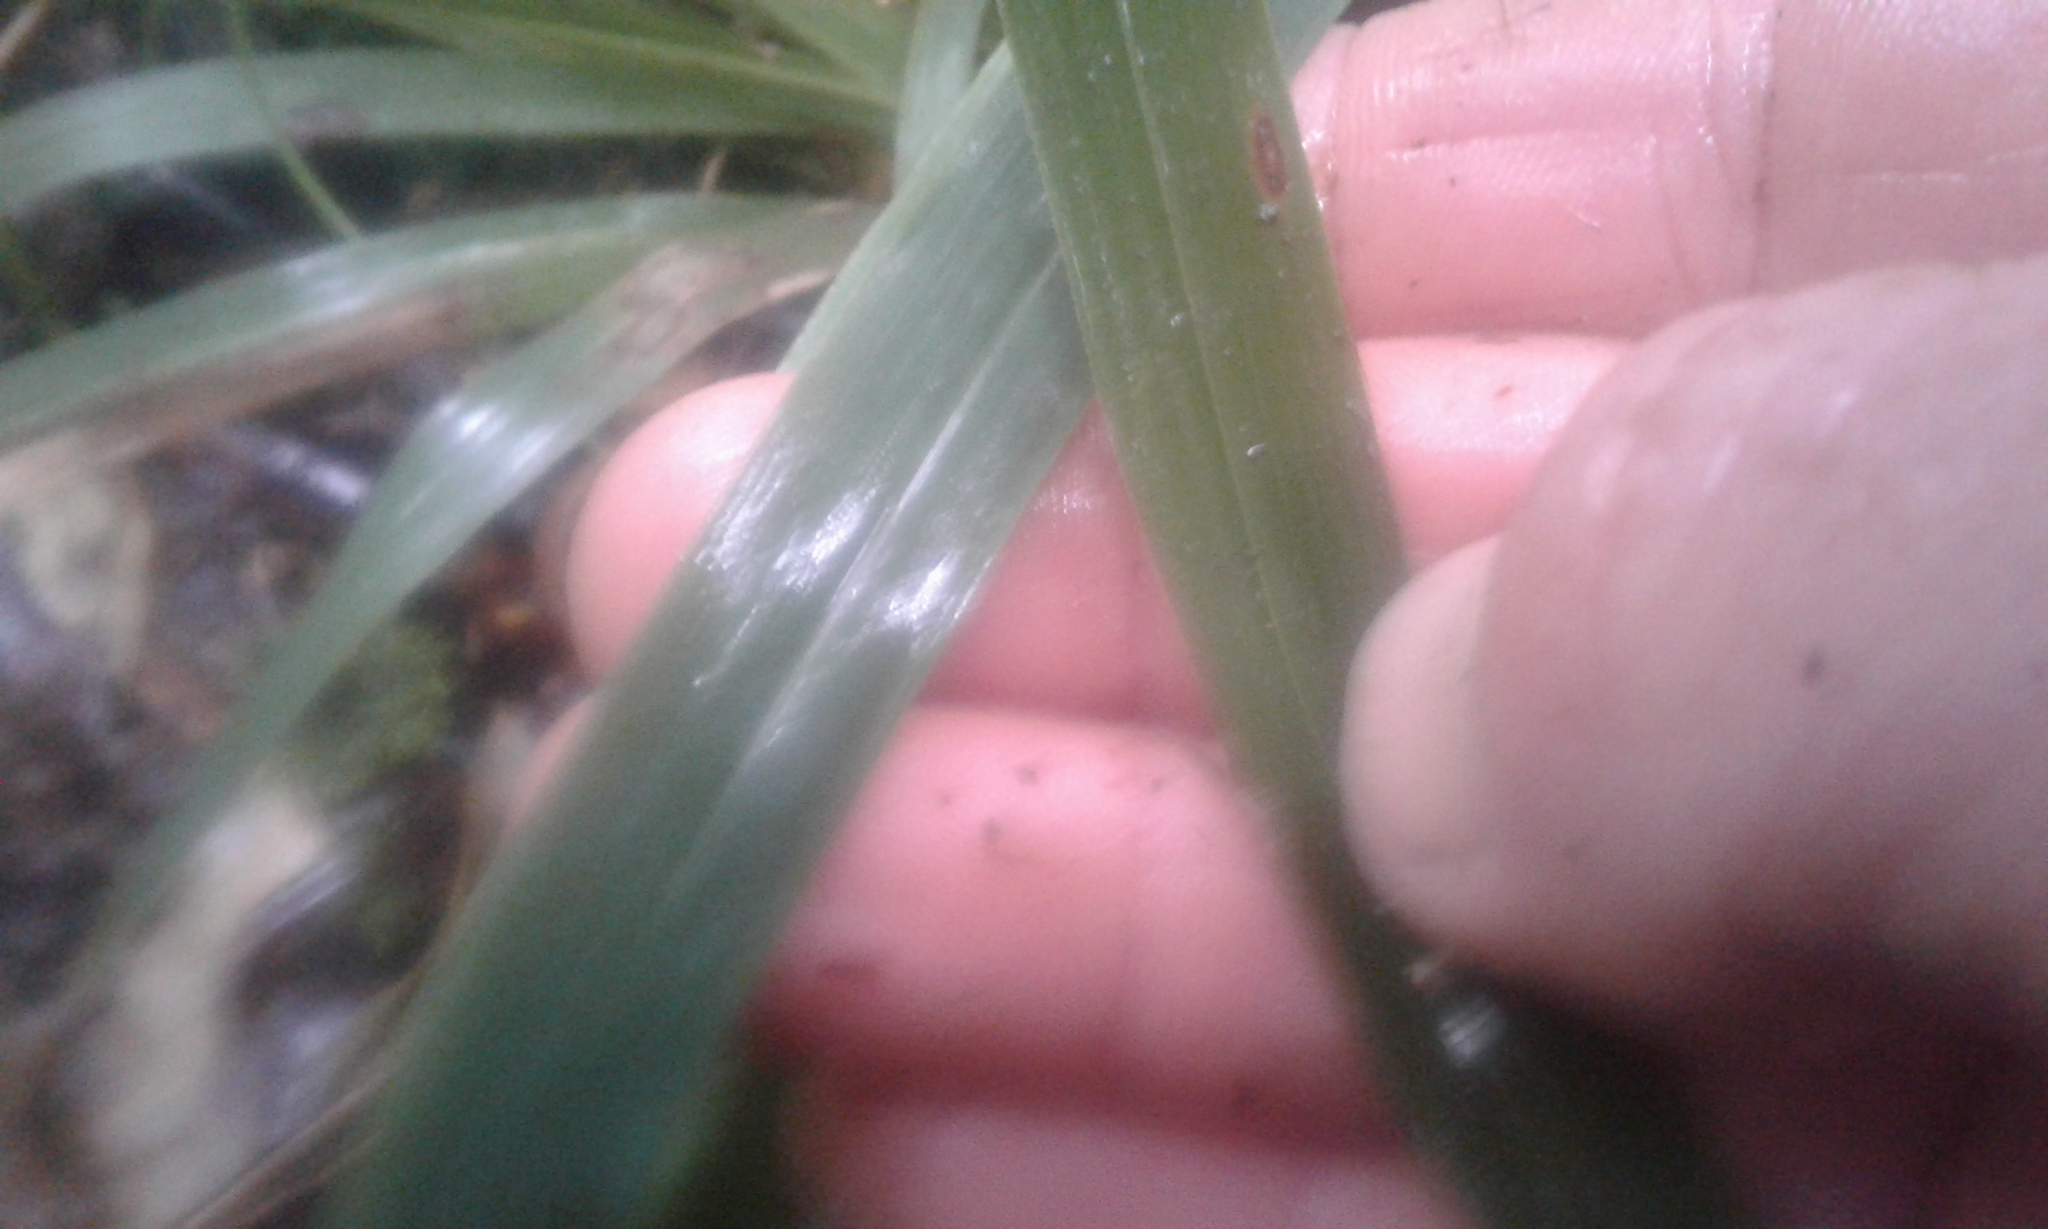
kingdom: Plantae
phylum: Tracheophyta
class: Liliopsida
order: Poales
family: Poaceae
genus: Ehrharta
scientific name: Ehrharta diplax
